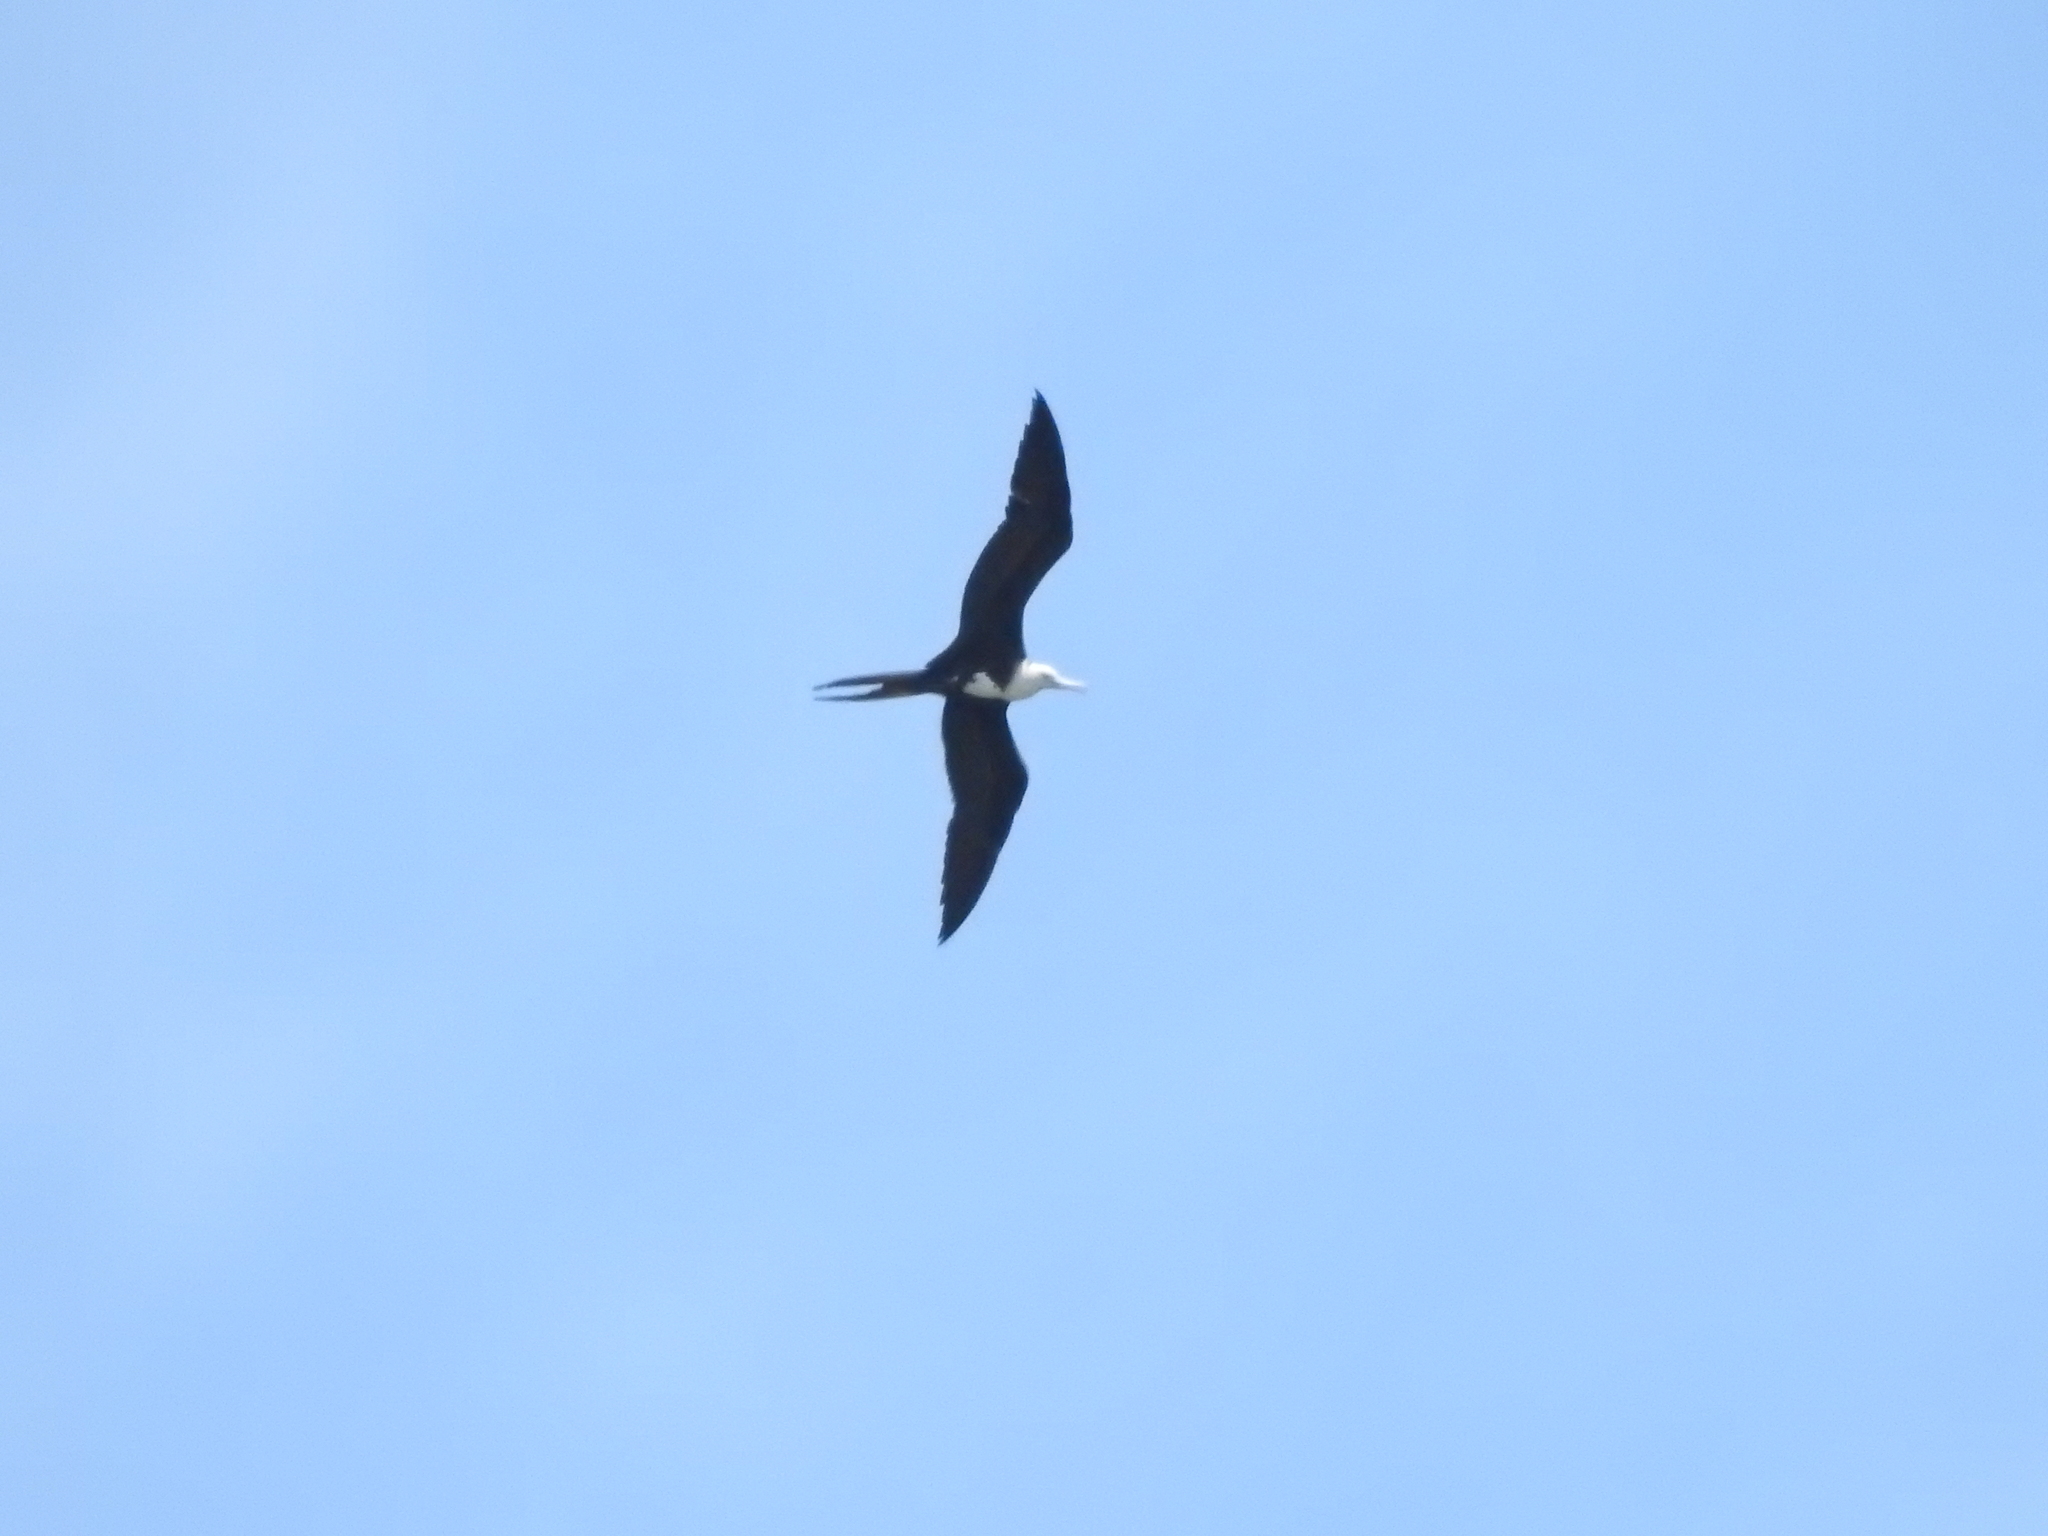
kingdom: Animalia
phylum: Chordata
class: Aves
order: Suliformes
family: Fregatidae
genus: Fregata
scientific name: Fregata magnificens
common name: Magnificent frigatebird
